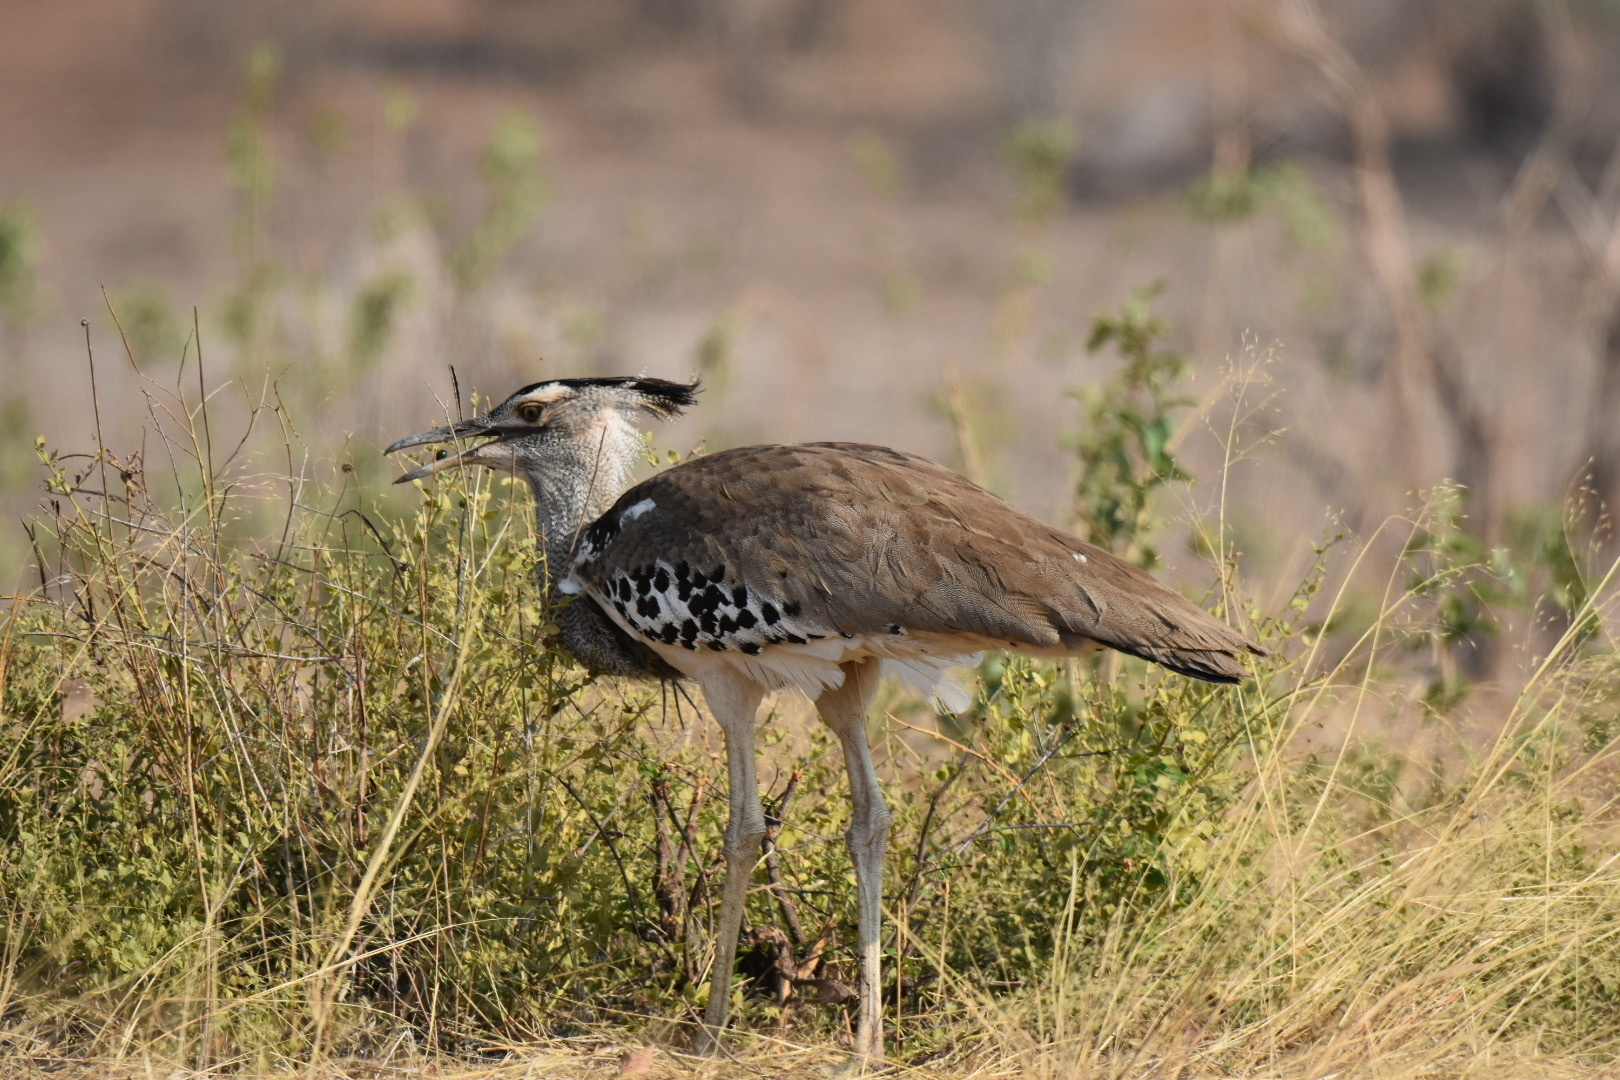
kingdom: Animalia
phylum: Chordata
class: Aves
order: Otidiformes
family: Otididae
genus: Ardeotis
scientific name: Ardeotis kori
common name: Kori bustard
